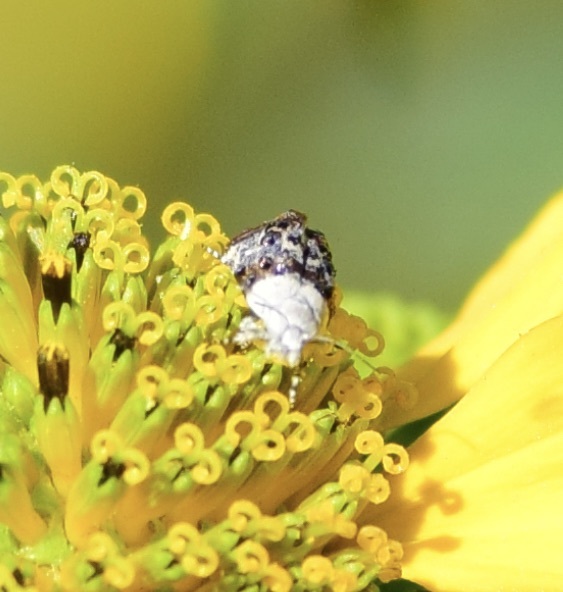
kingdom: Animalia
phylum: Arthropoda
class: Insecta
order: Lepidoptera
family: Noctuidae
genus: Acontia
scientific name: Acontia erastrioides
